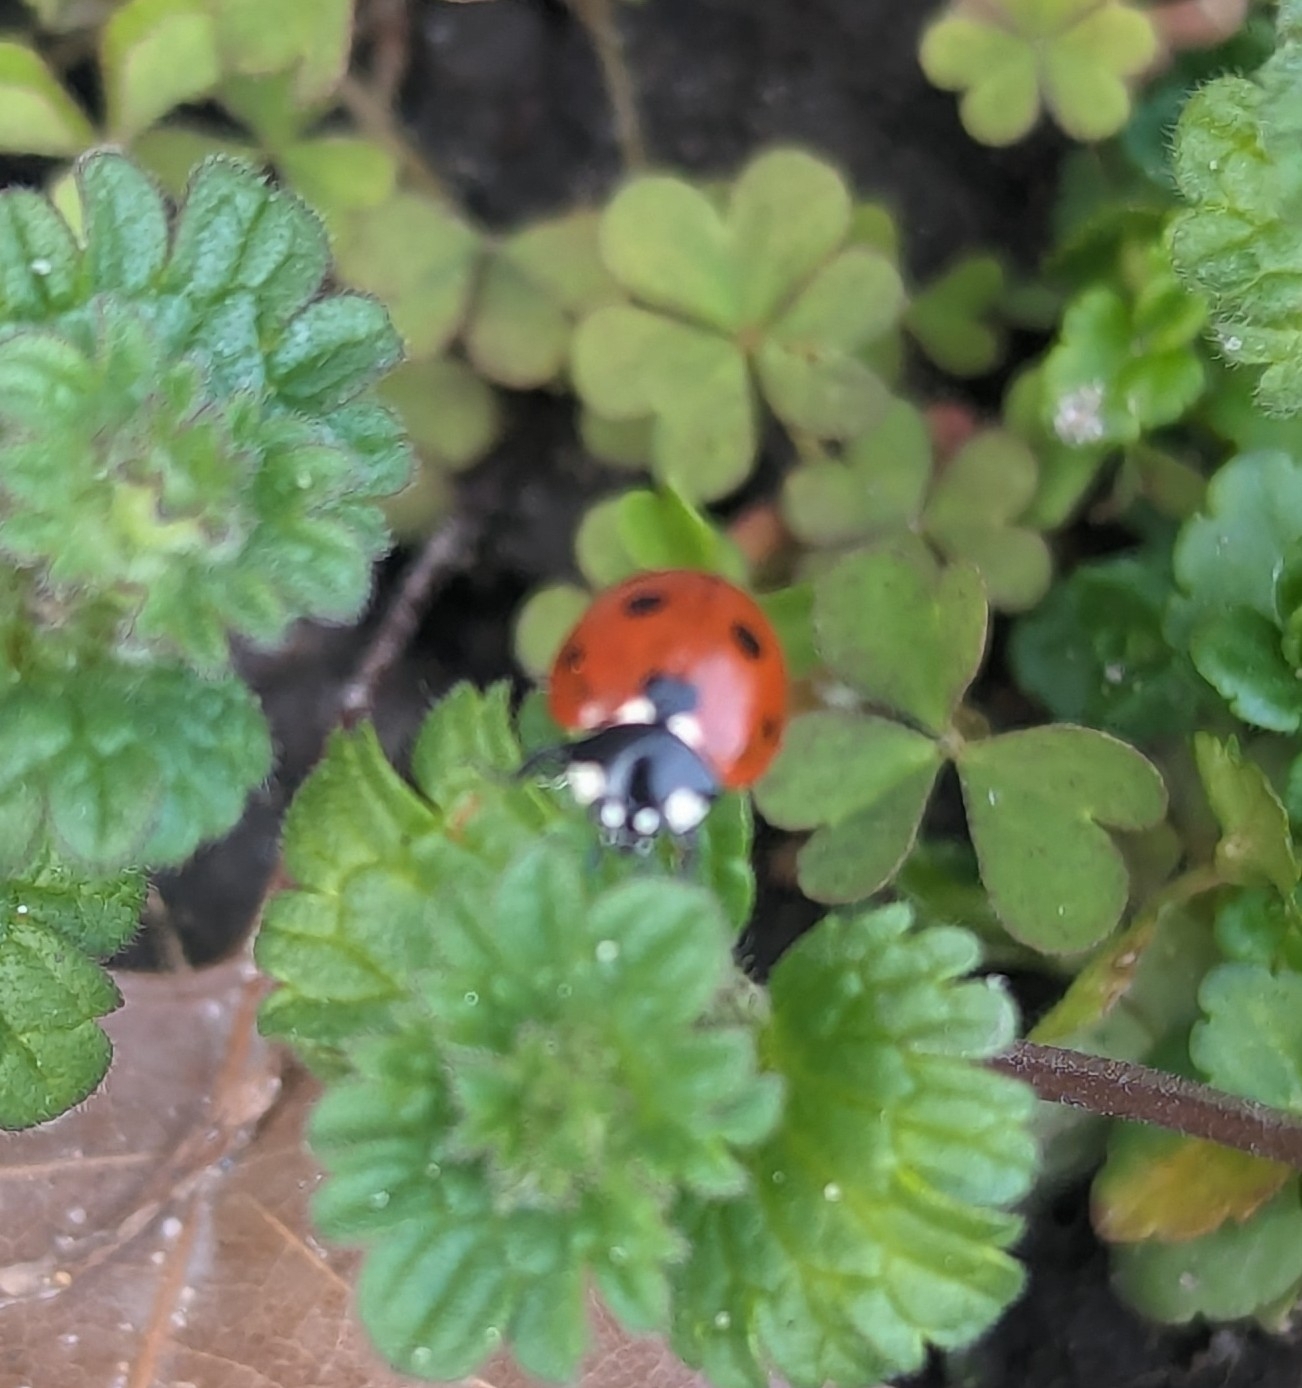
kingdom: Animalia
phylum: Arthropoda
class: Insecta
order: Coleoptera
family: Coccinellidae
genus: Coccinella
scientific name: Coccinella septempunctata
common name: Sevenspotted lady beetle
